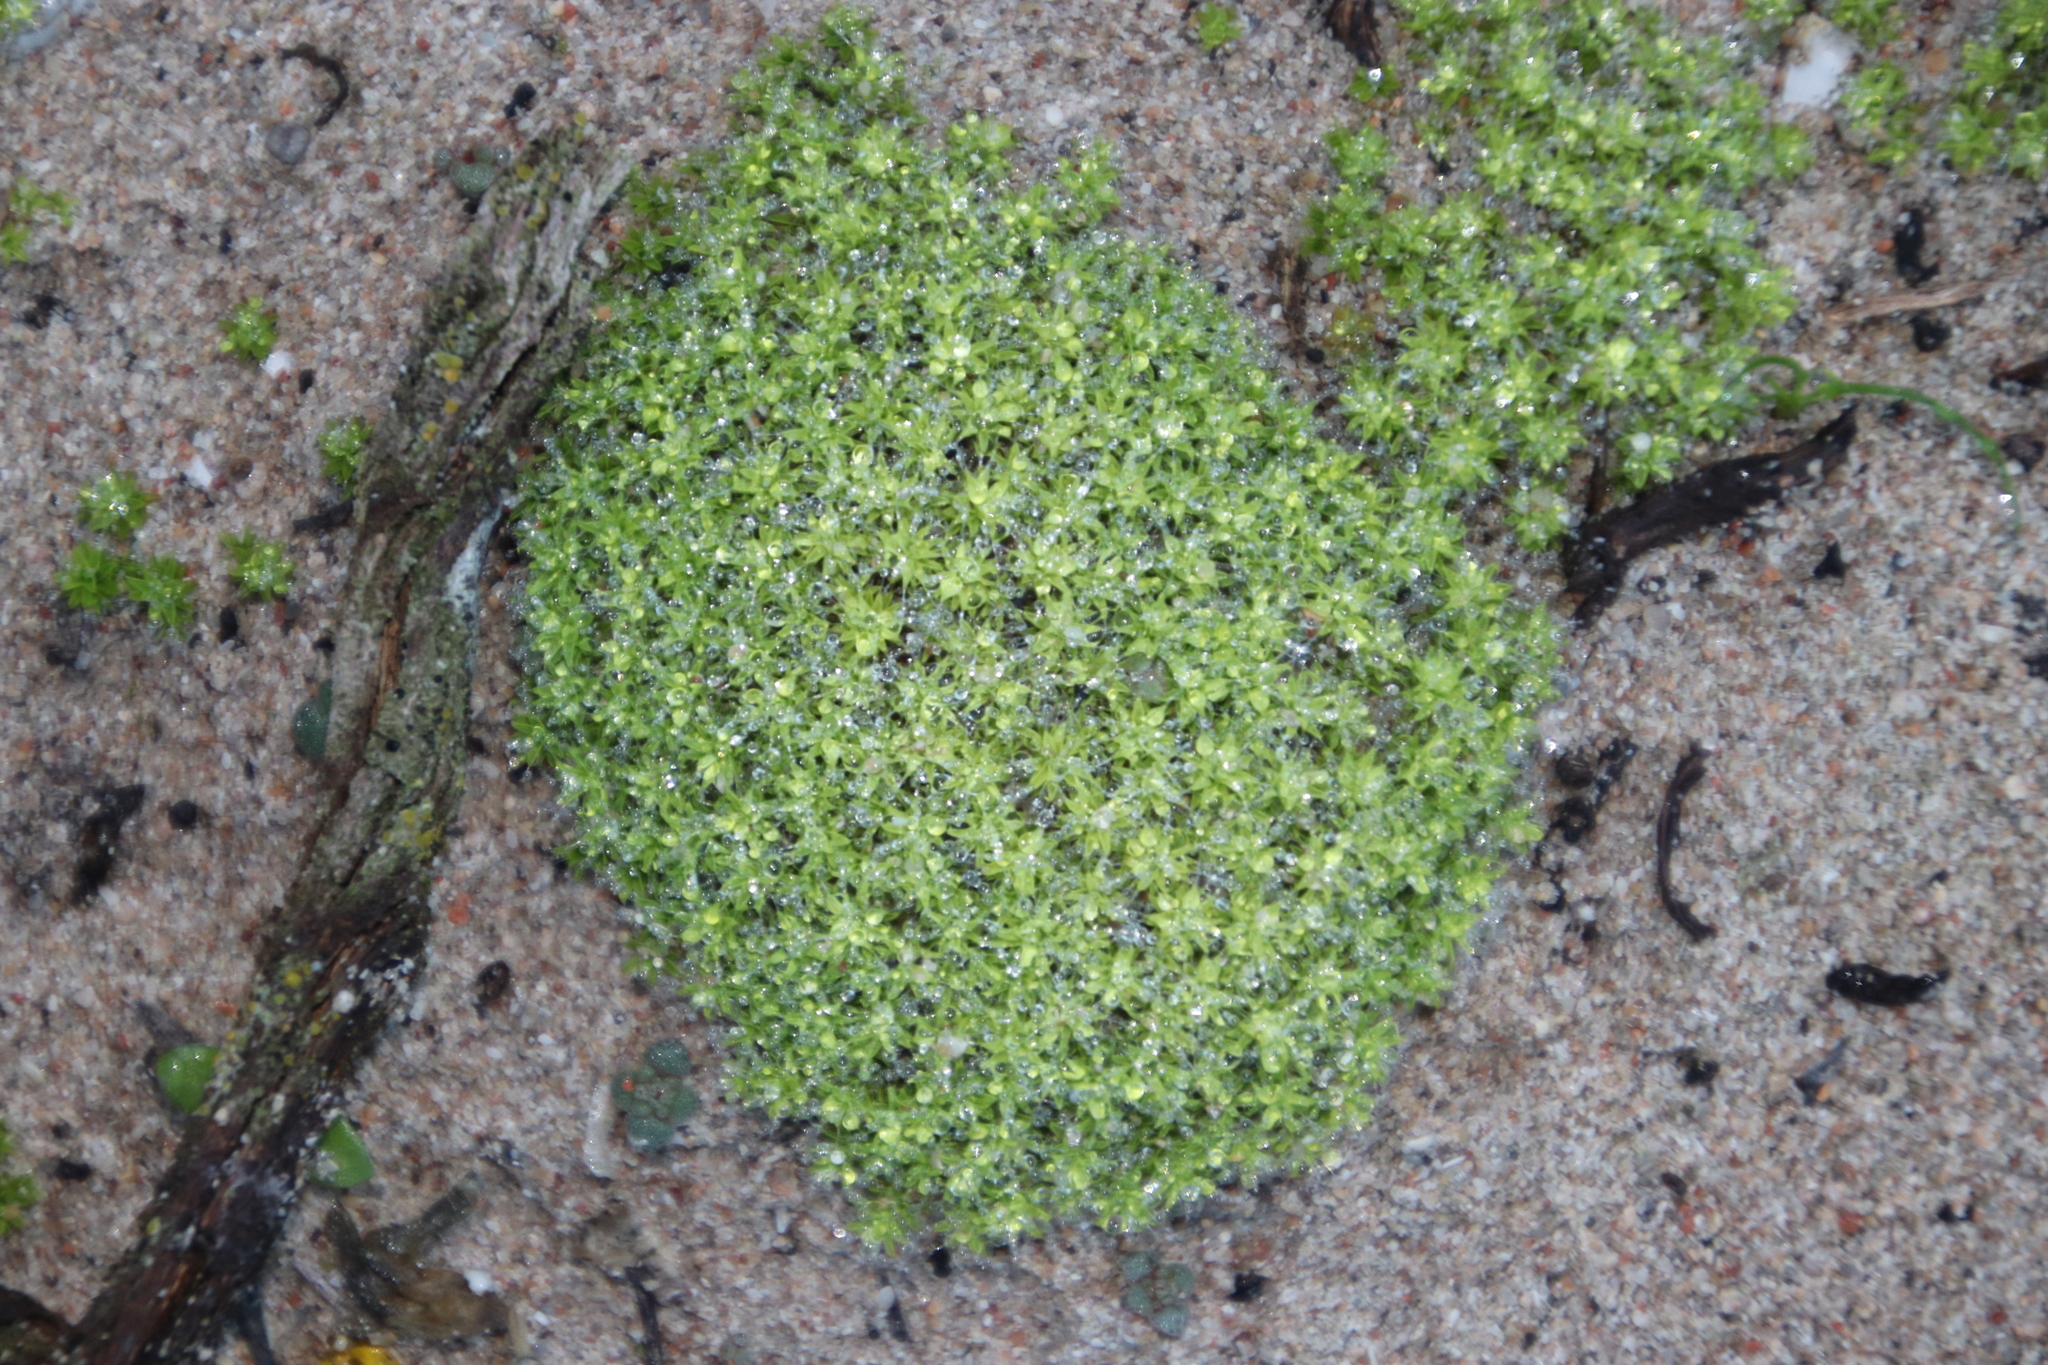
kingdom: Plantae
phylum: Bryophyta
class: Bryopsida
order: Pottiales
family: Pottiaceae
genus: Pseudocrossidium
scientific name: Pseudocrossidium crinitum
